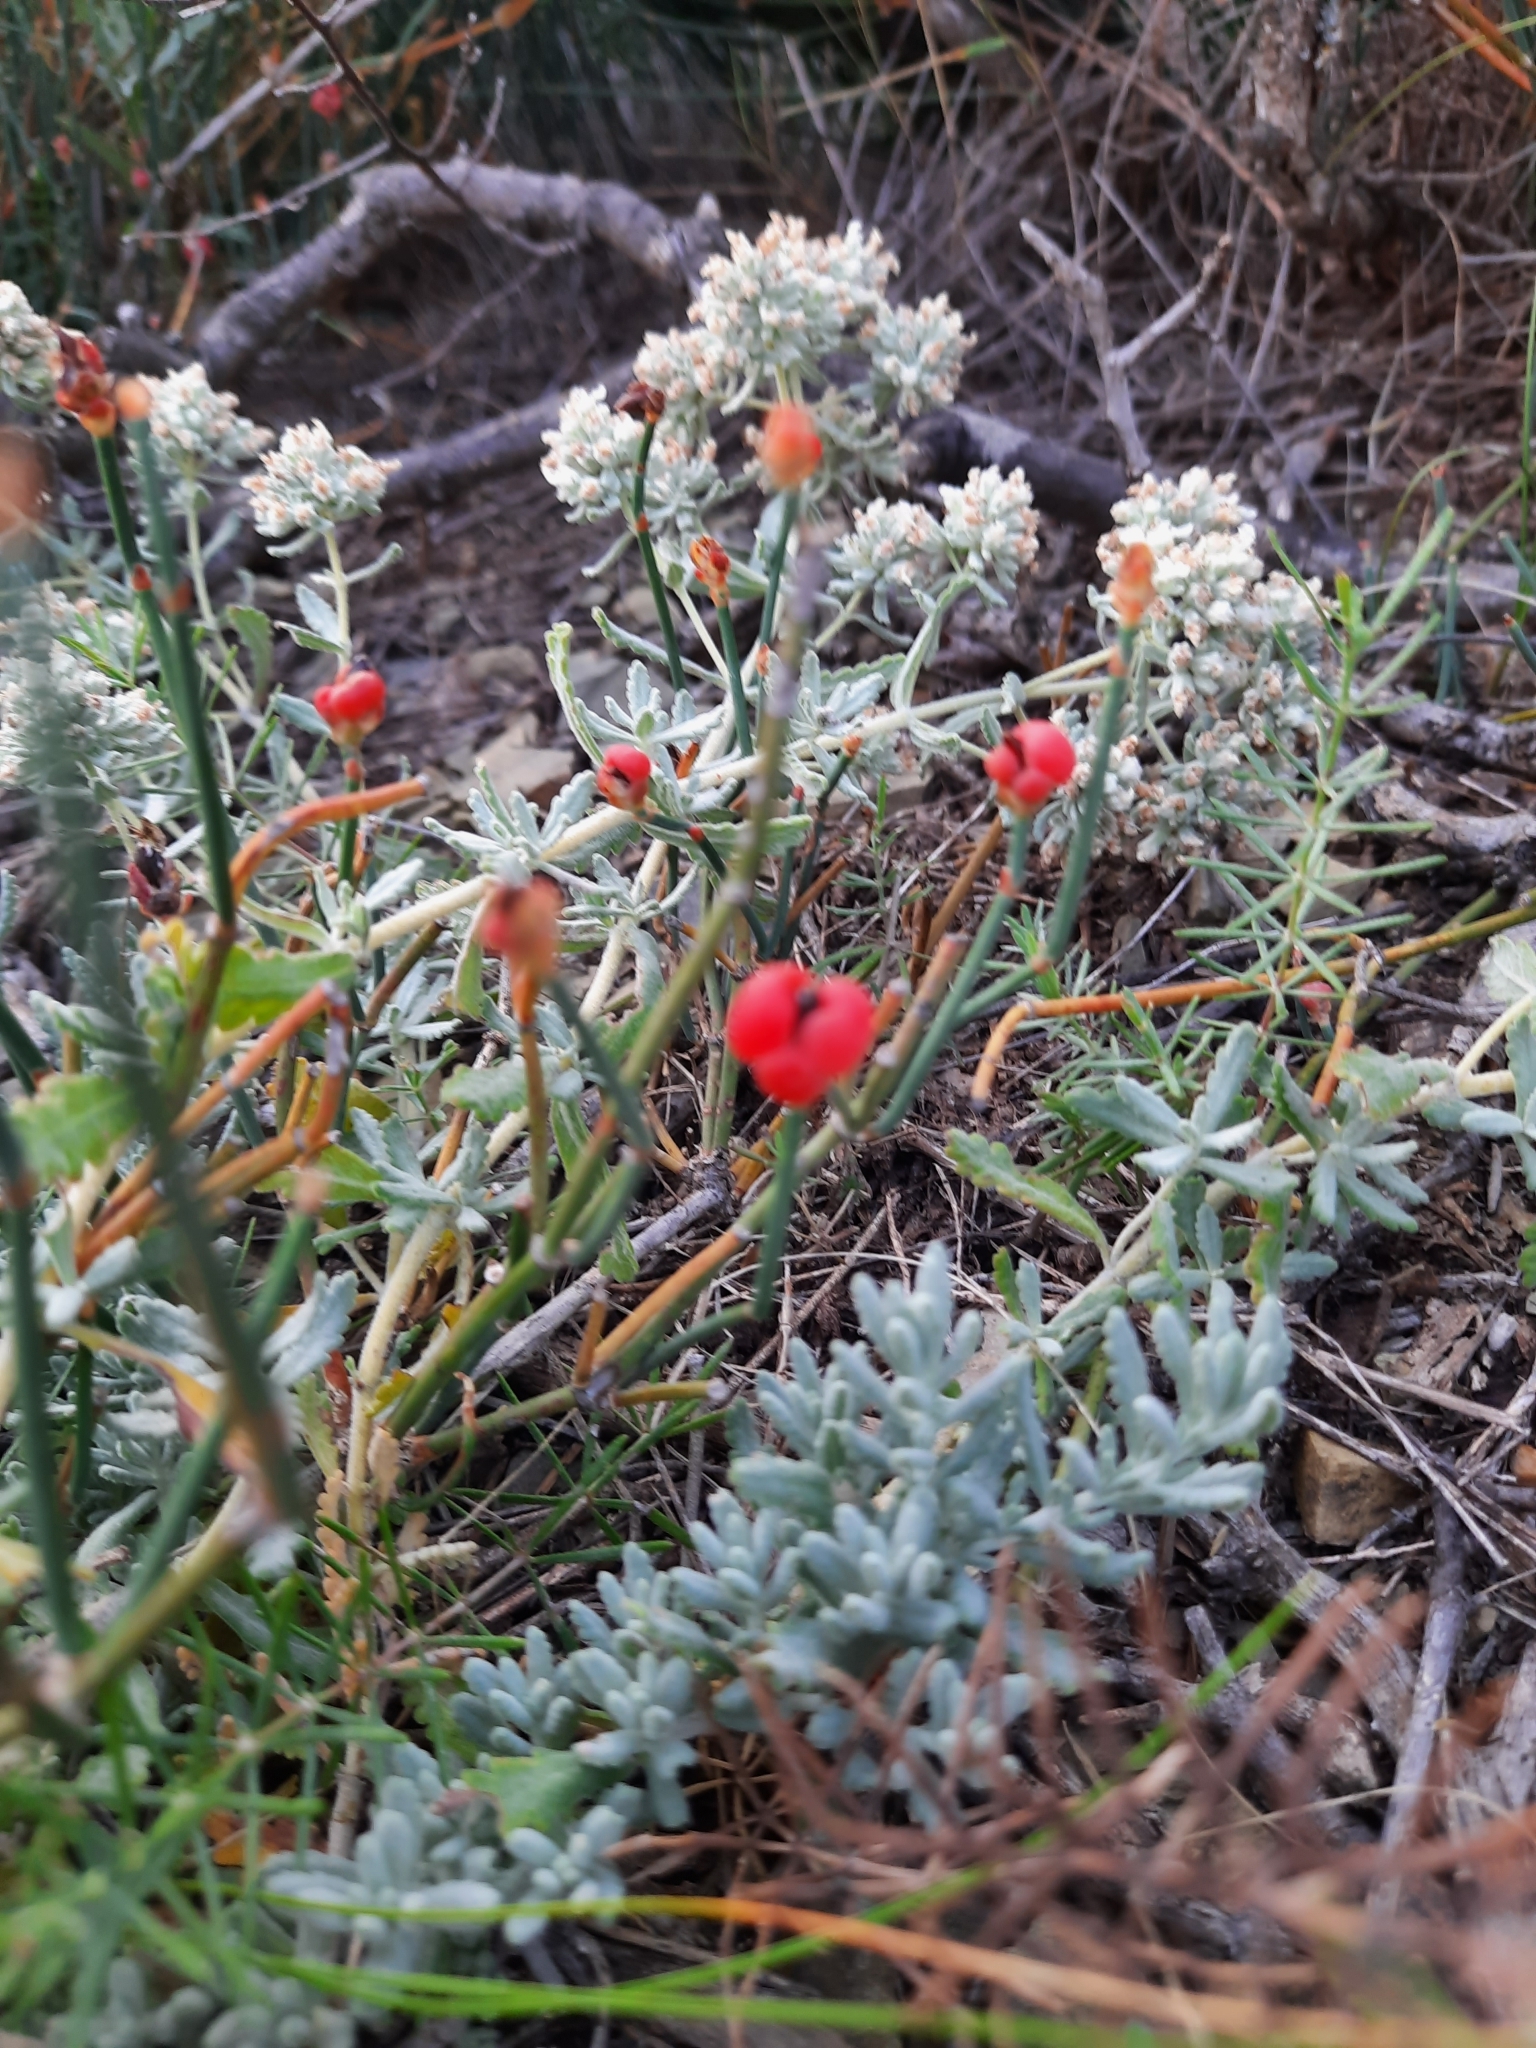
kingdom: Plantae
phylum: Tracheophyta
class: Gnetopsida
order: Ephedrales
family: Ephedraceae
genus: Ephedra
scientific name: Ephedra distachya
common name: Sea grape
